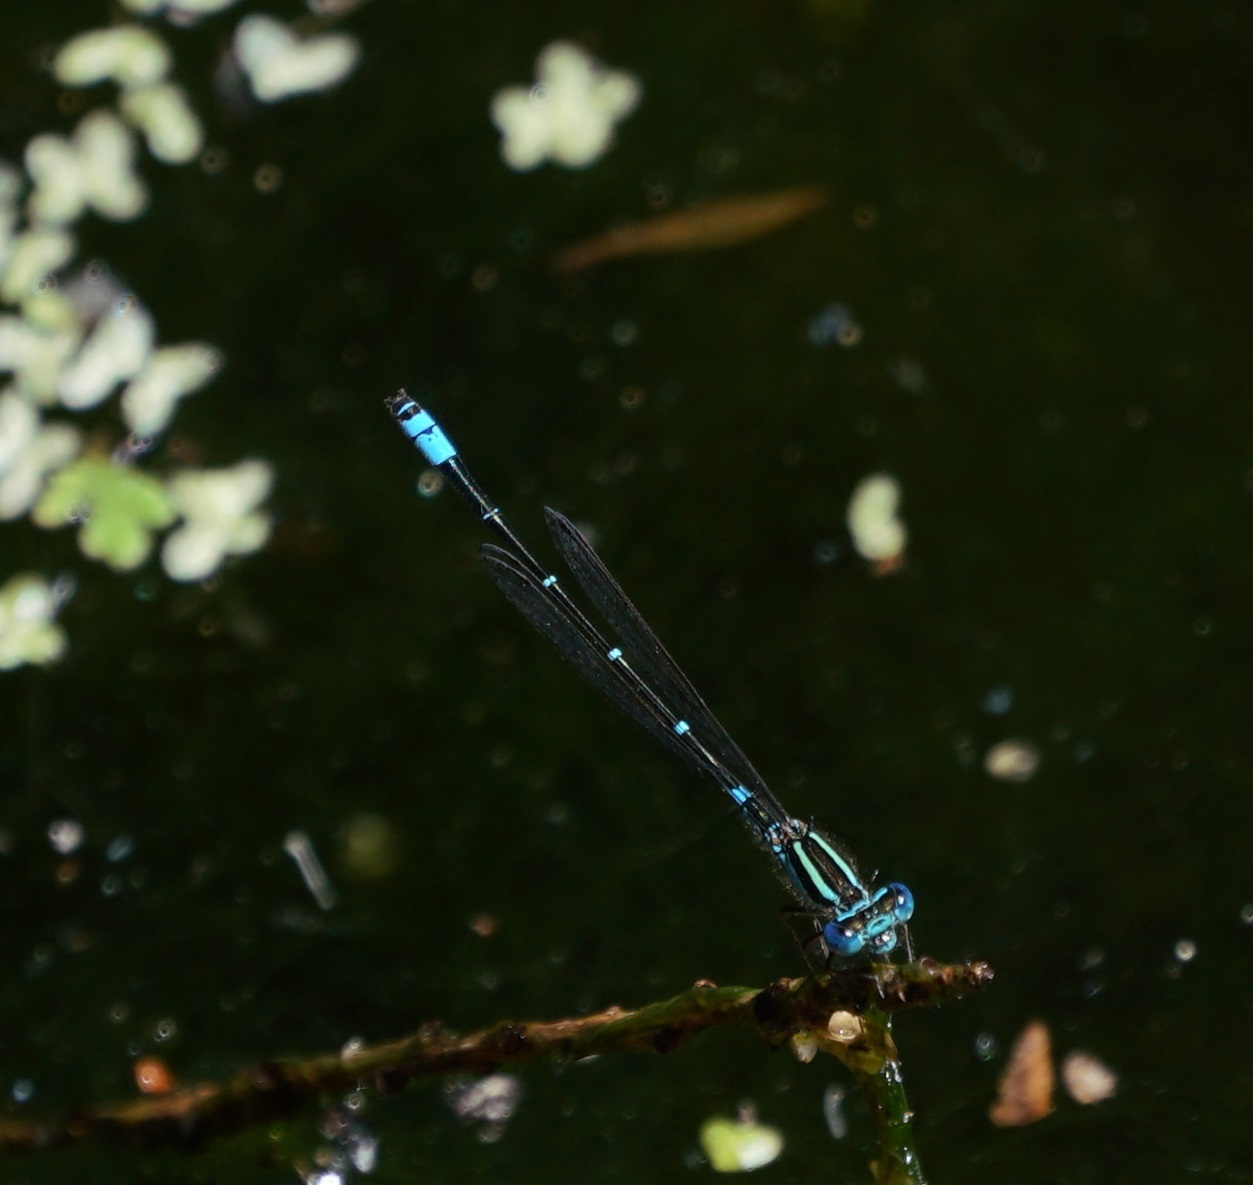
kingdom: Animalia
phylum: Arthropoda
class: Insecta
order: Odonata
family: Coenagrionidae
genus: Austroagrion
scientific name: Austroagrion watsoni
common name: Eastern billabongfly
